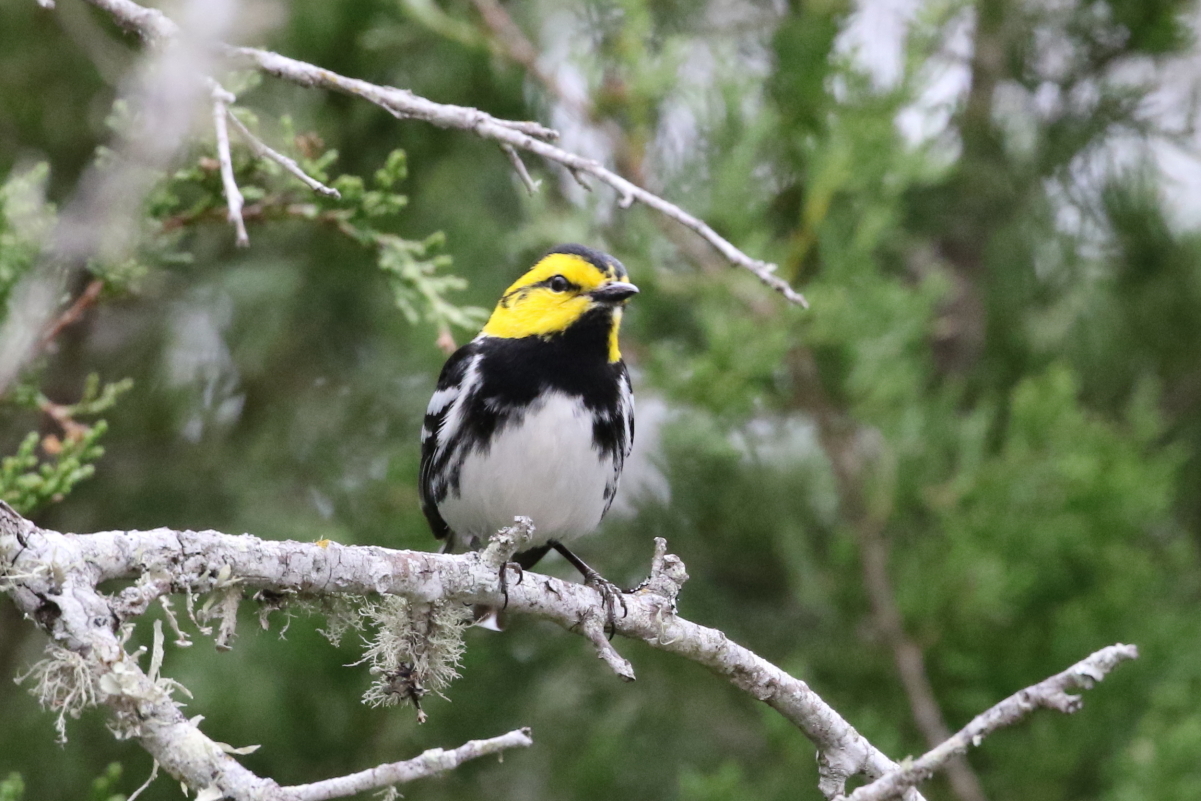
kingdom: Animalia
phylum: Chordata
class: Aves
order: Passeriformes
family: Parulidae
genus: Setophaga
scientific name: Setophaga chrysoparia
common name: Golden-cheeked warbler
